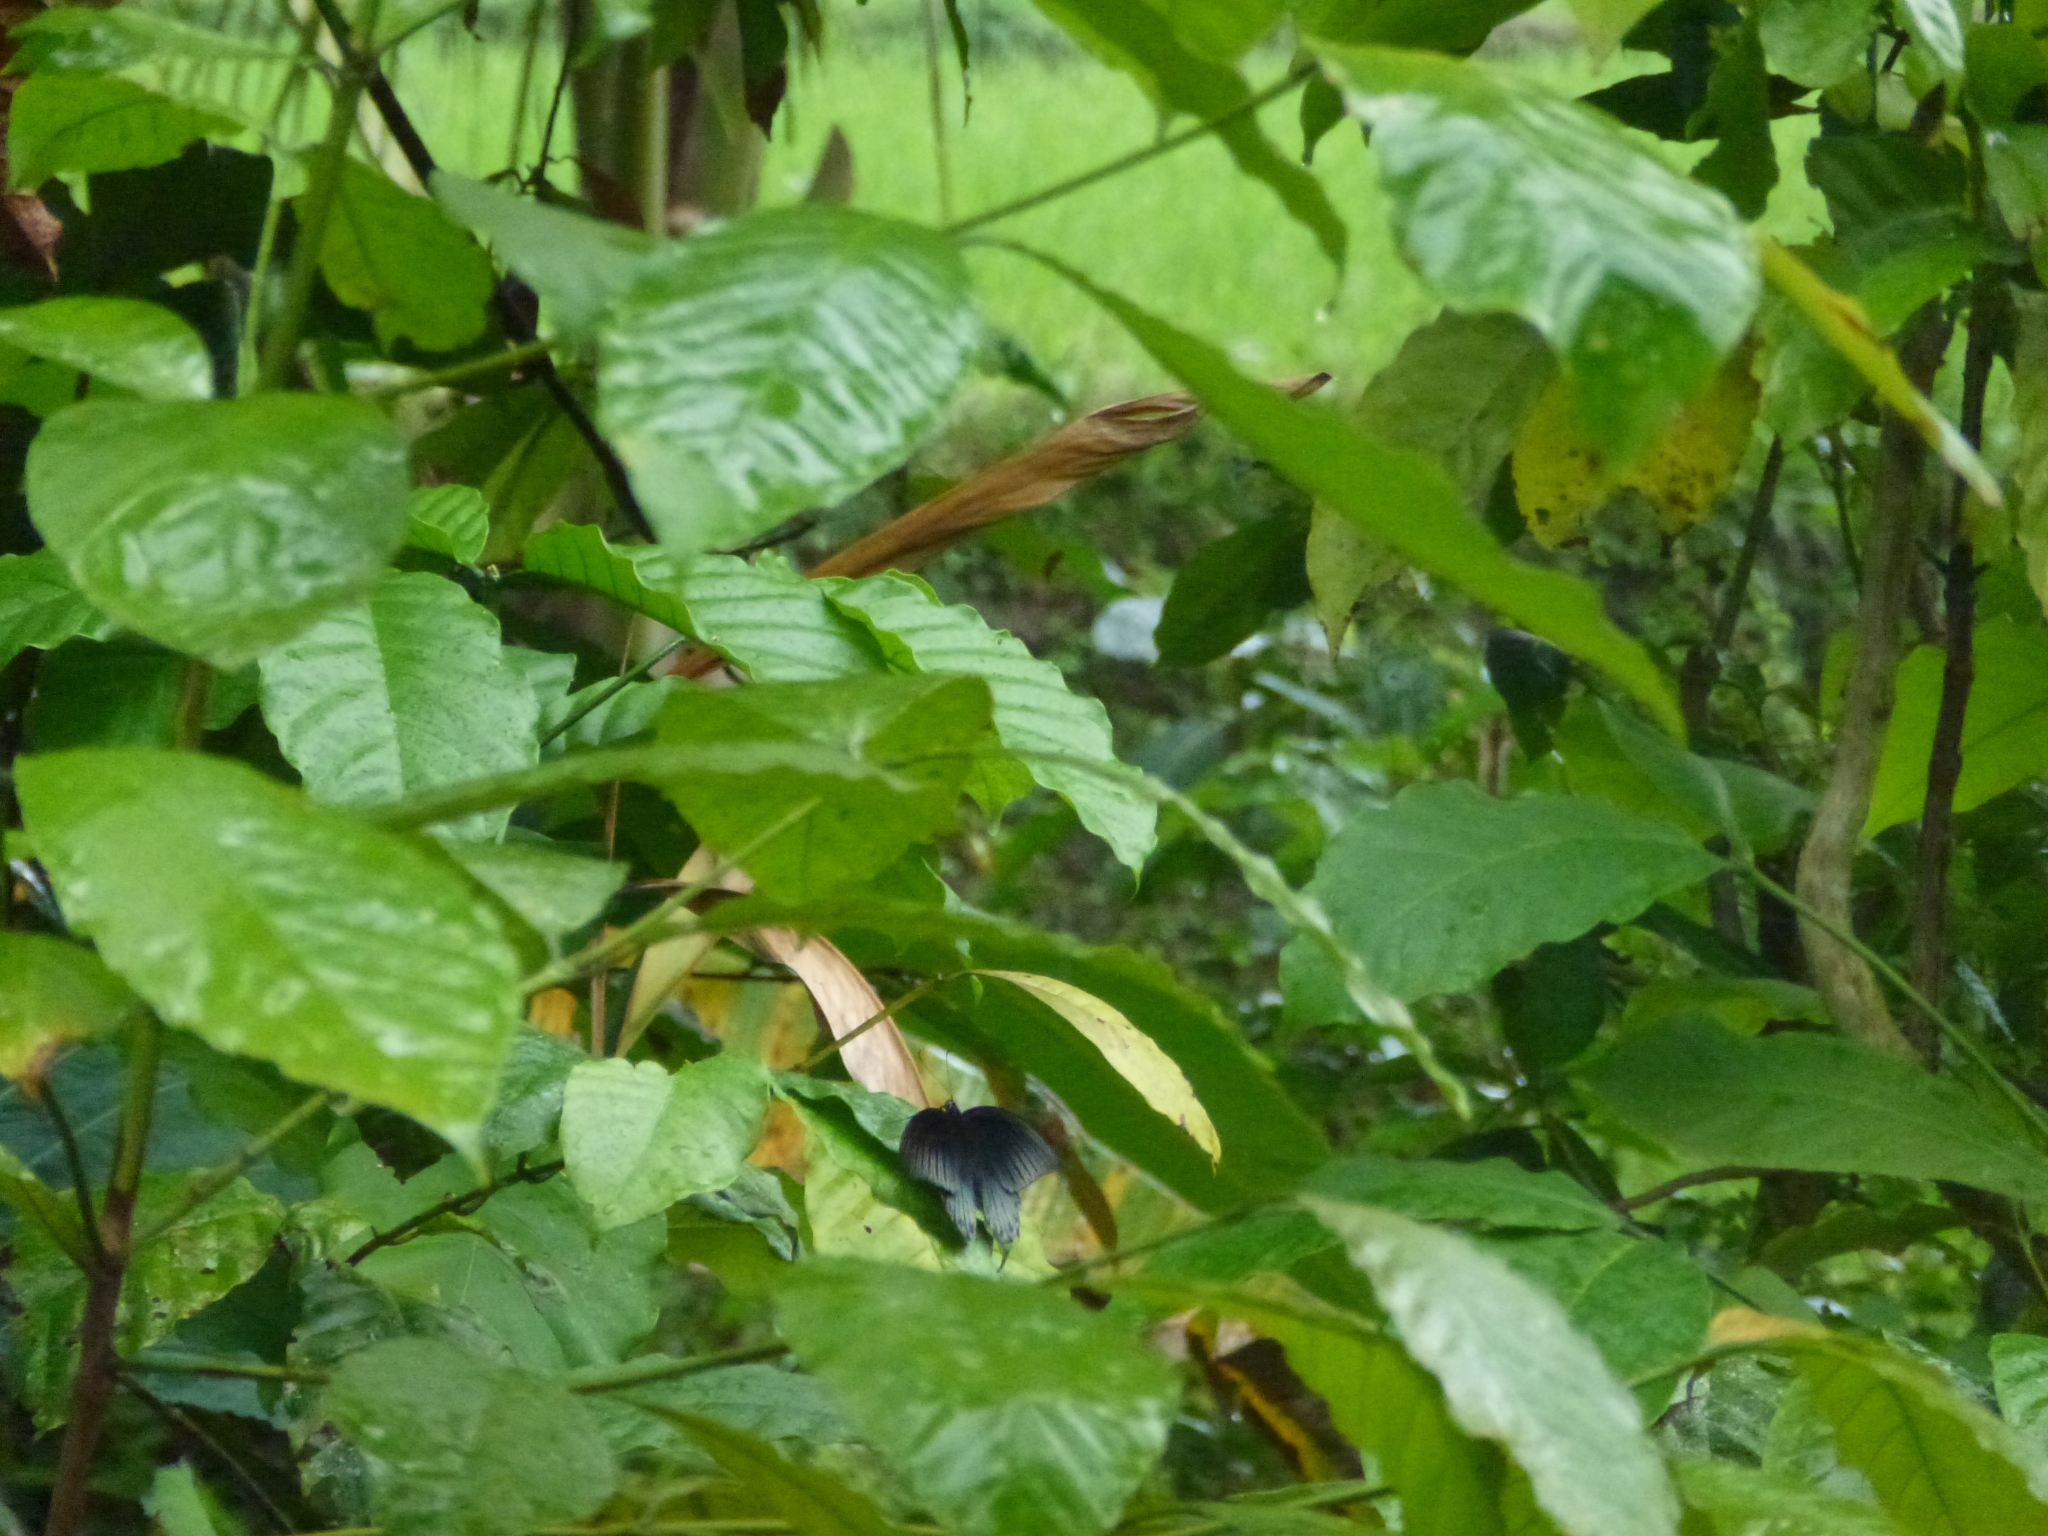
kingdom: Animalia
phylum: Arthropoda
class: Insecta
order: Lepidoptera
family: Papilionidae
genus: Papilio
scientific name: Papilio memnon
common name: Great mormon
